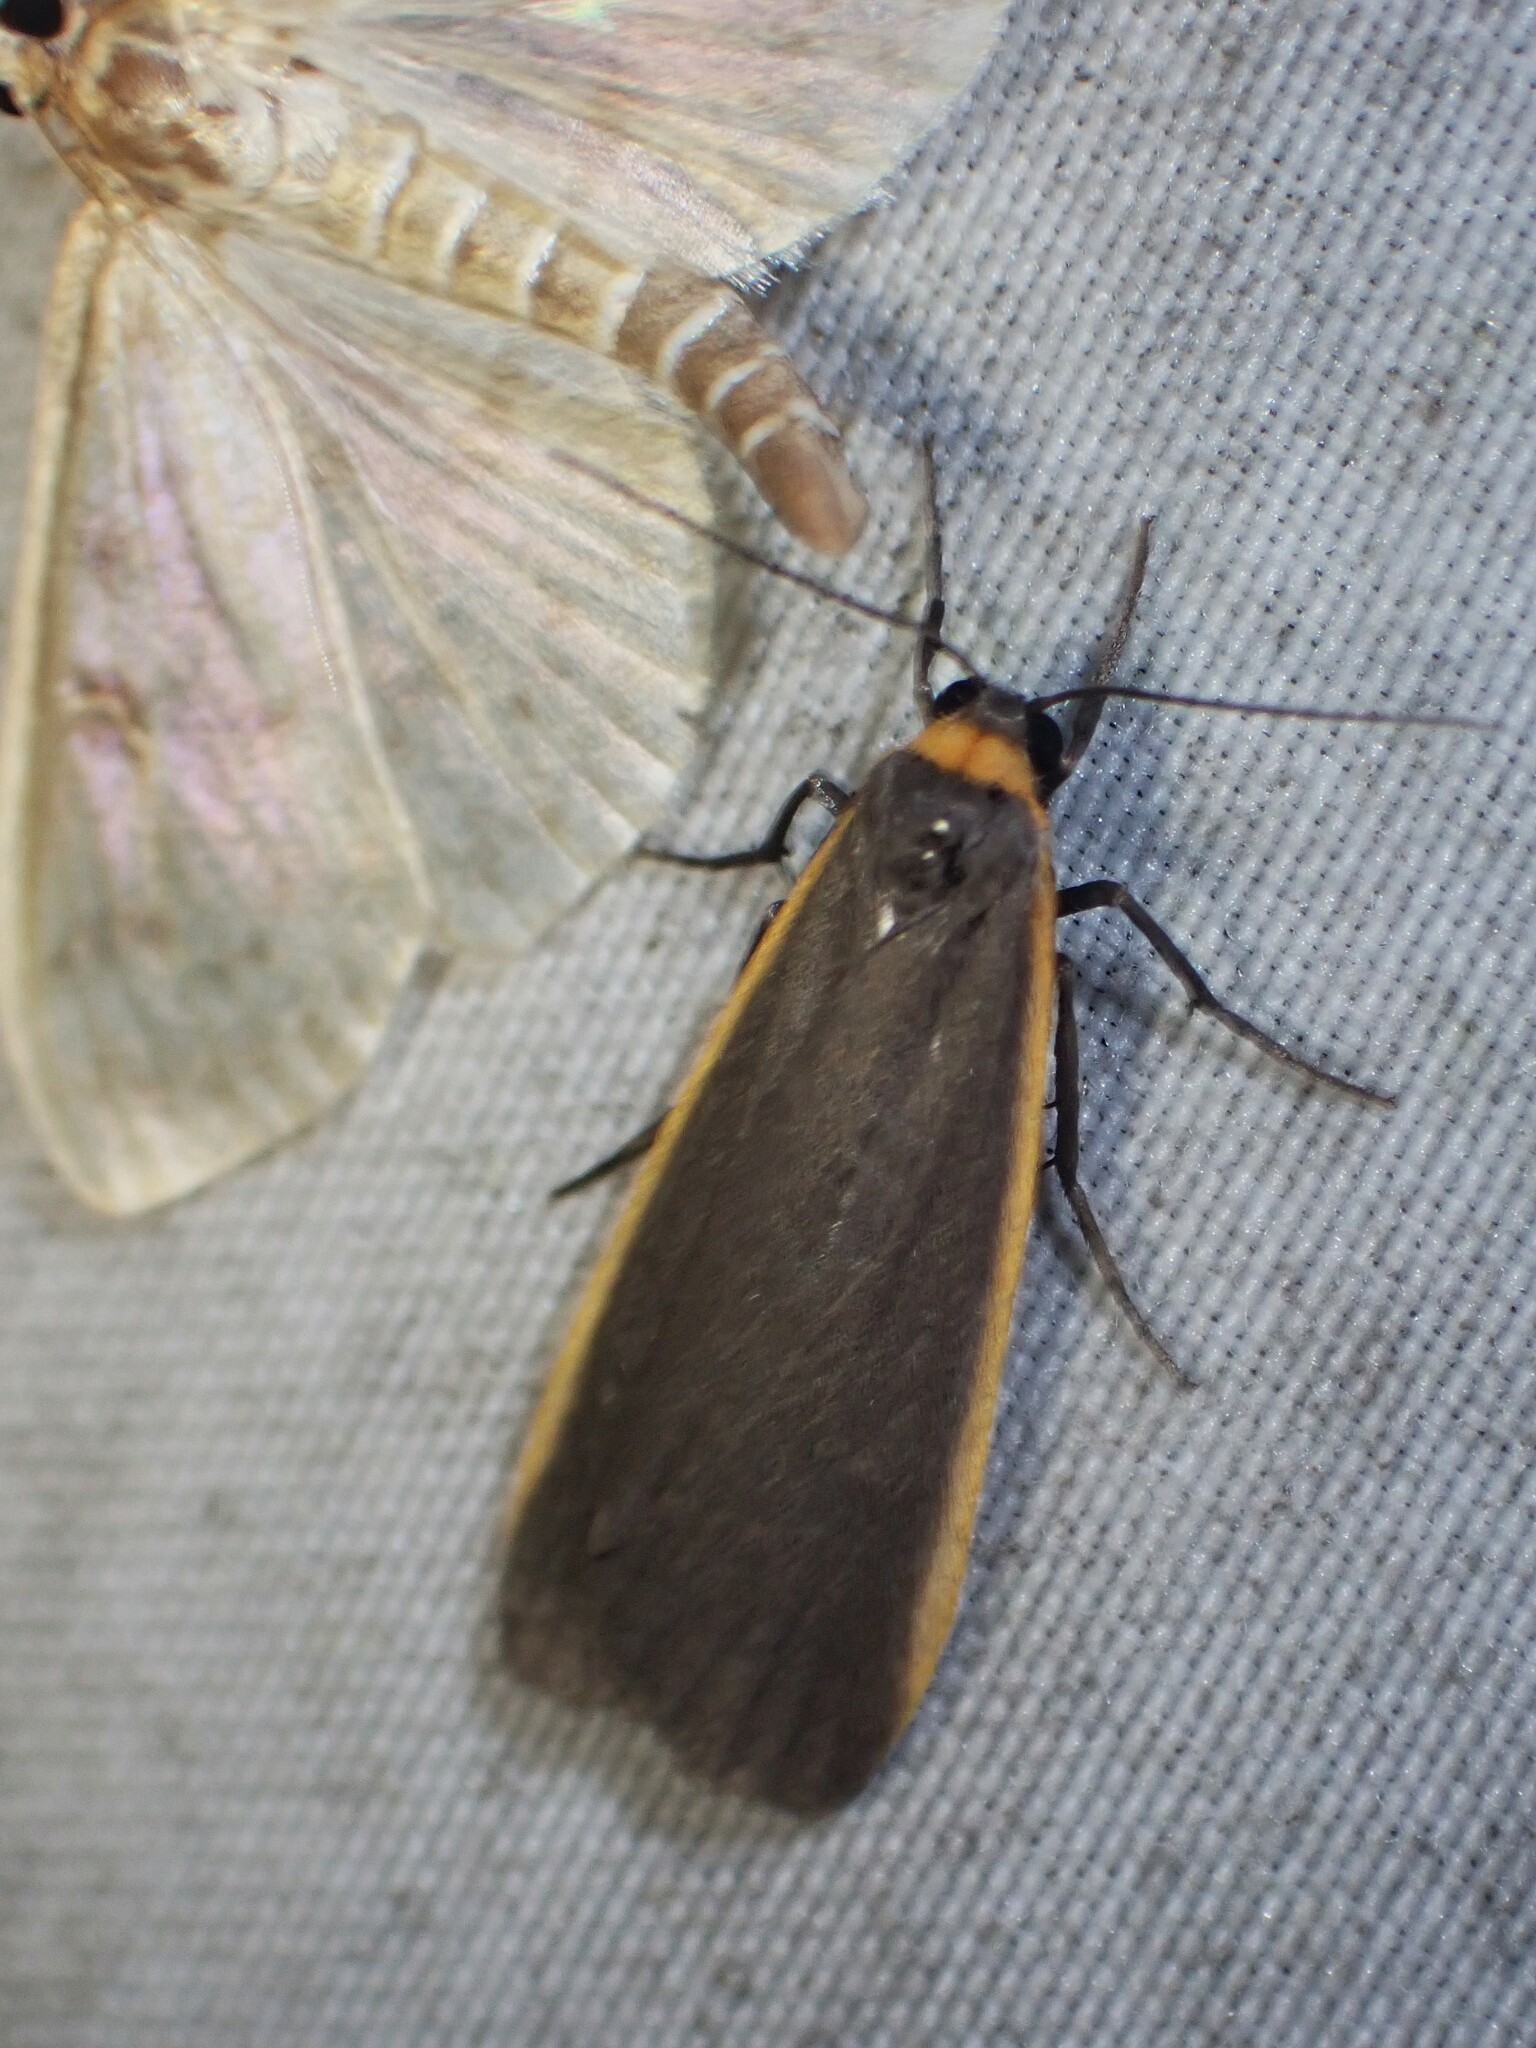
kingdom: Animalia
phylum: Arthropoda
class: Insecta
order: Lepidoptera
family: Erebidae
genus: Manulea
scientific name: Manulea bicolor
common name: Bicolored moth
